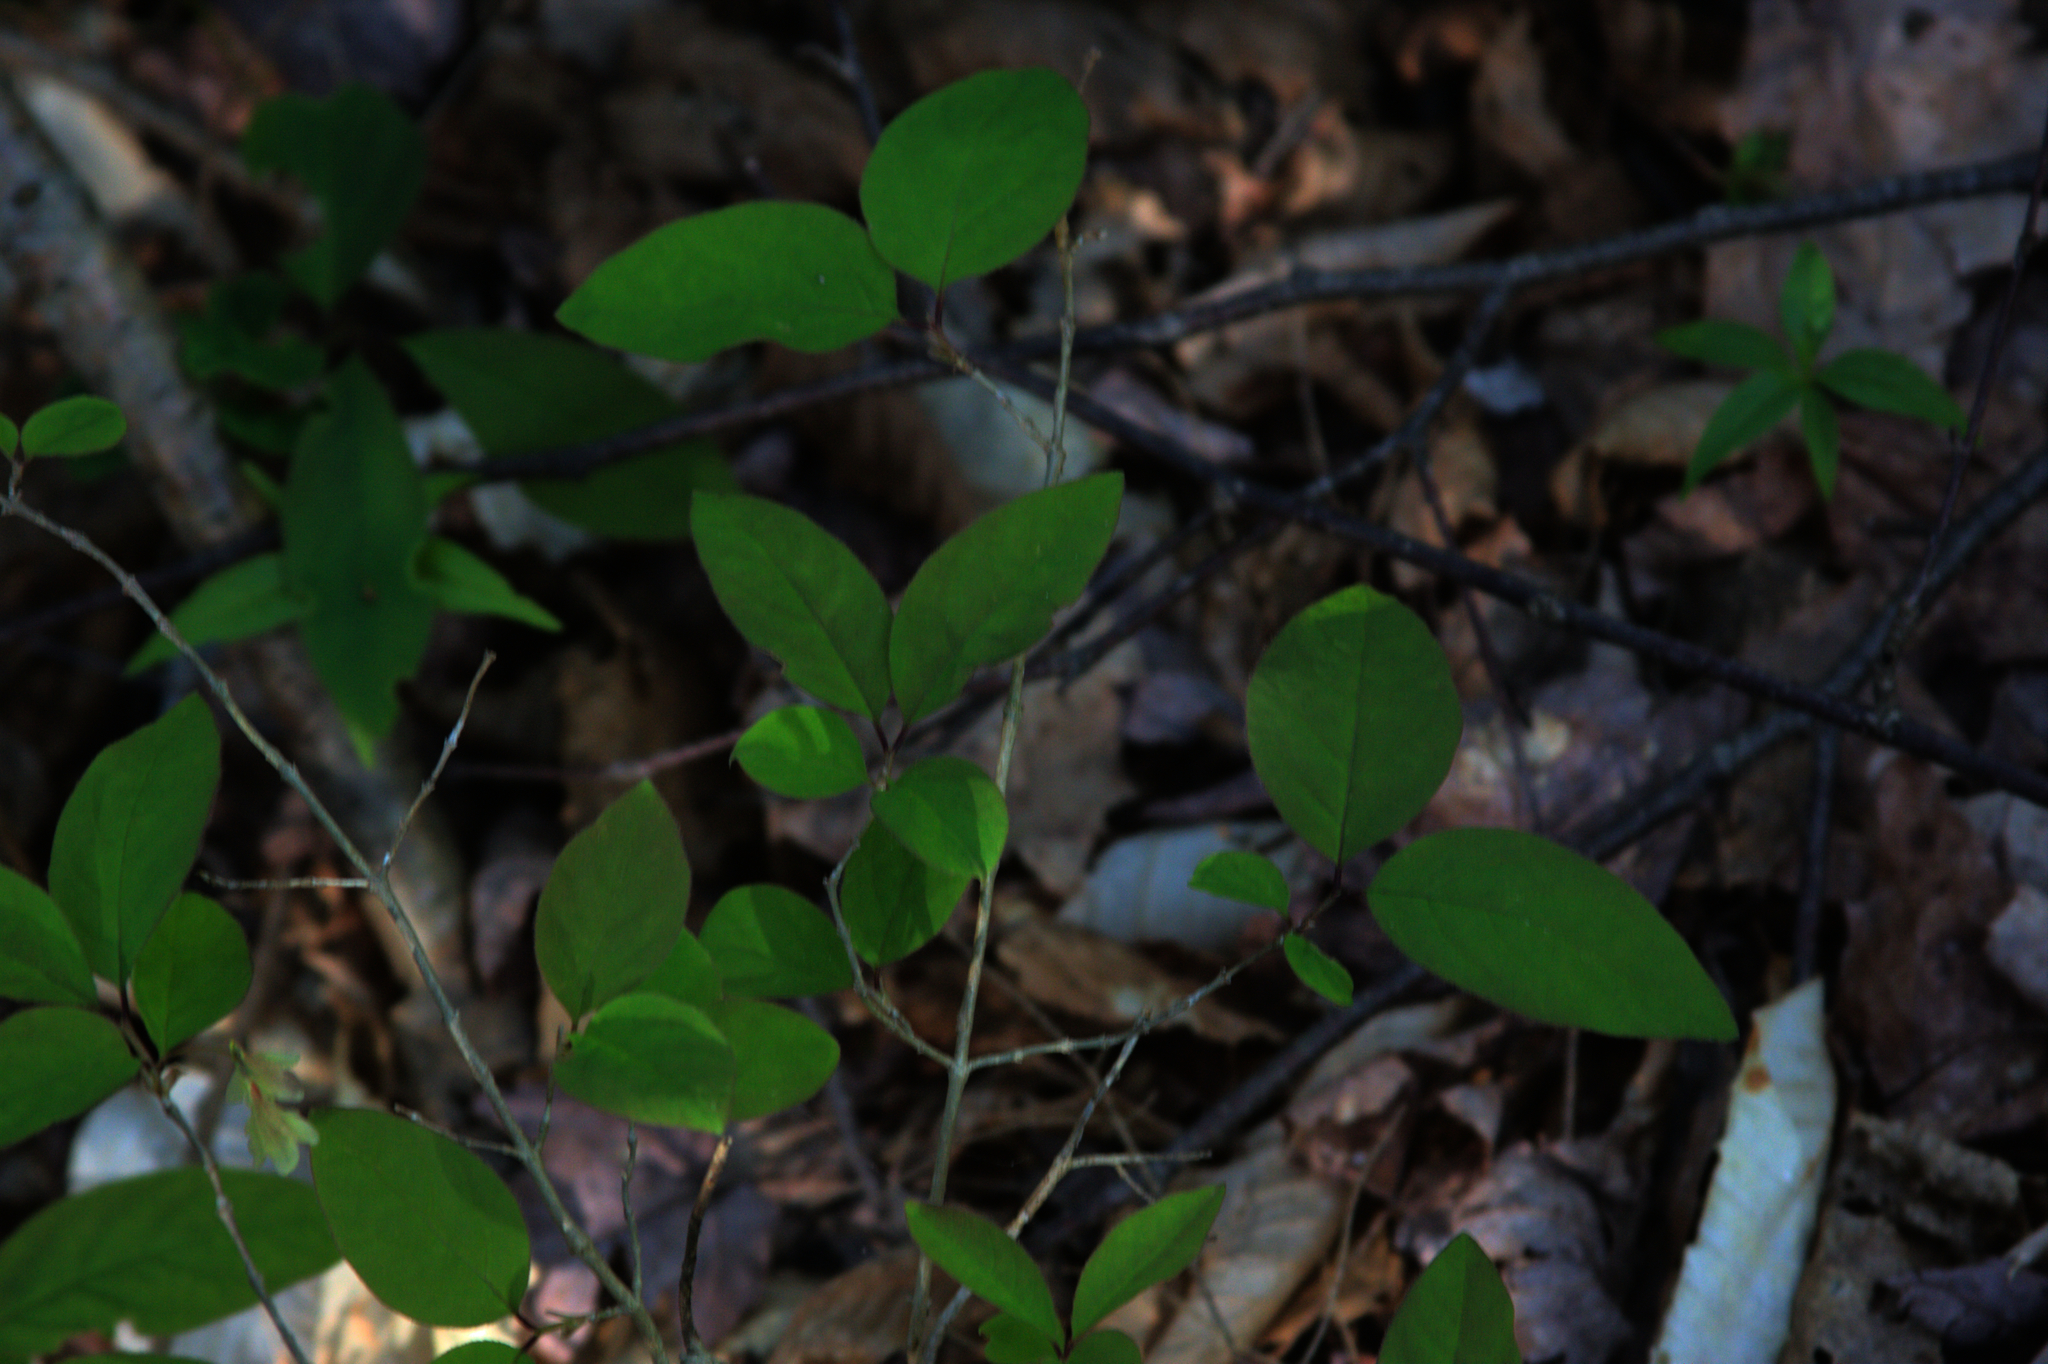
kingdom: Plantae
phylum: Tracheophyta
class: Magnoliopsida
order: Dipsacales
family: Caprifoliaceae
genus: Lonicera
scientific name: Lonicera canadensis
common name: American fly-honeysuckle
